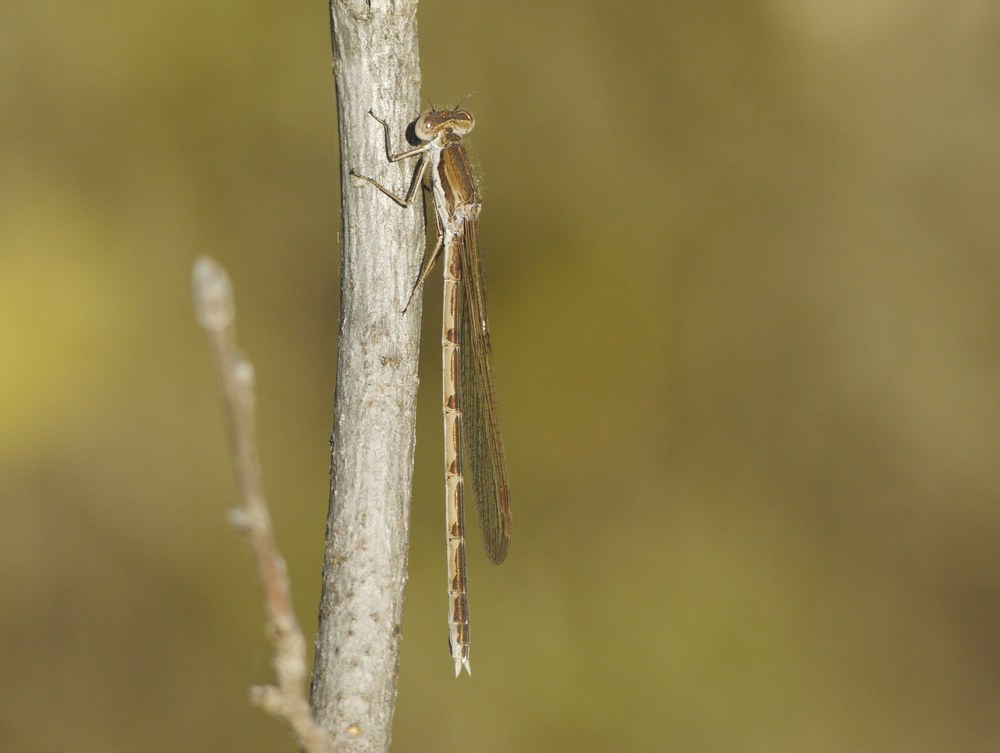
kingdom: Animalia
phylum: Arthropoda
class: Insecta
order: Odonata
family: Lestidae
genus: Sympecma
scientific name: Sympecma fusca
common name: Common winter damsel
